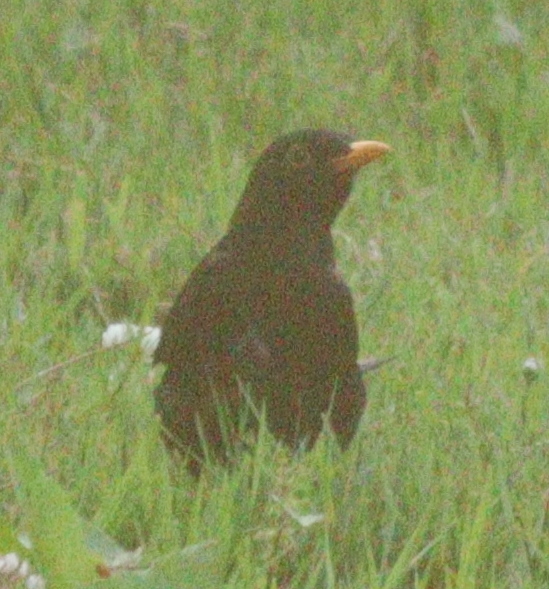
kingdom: Animalia
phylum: Chordata
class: Aves
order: Passeriformes
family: Turdidae
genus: Turdus
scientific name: Turdus merula
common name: Common blackbird
